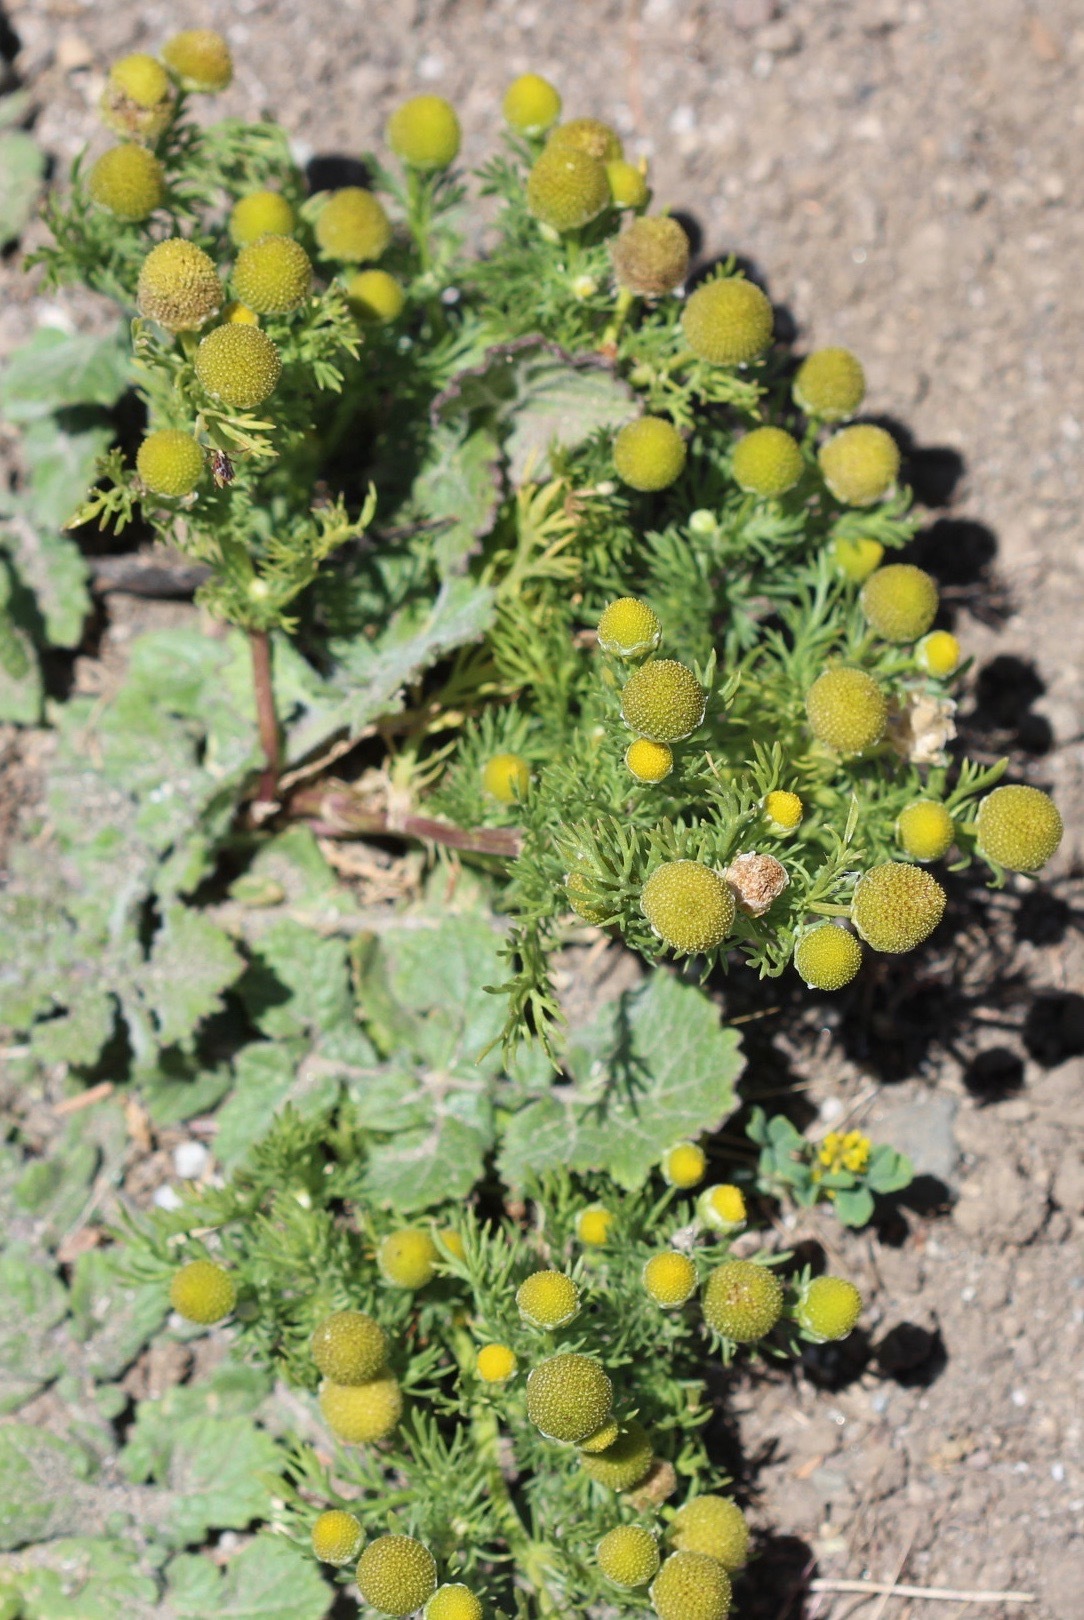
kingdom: Plantae
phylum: Tracheophyta
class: Magnoliopsida
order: Asterales
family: Asteraceae
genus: Matricaria
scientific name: Matricaria discoidea
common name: Disc mayweed
